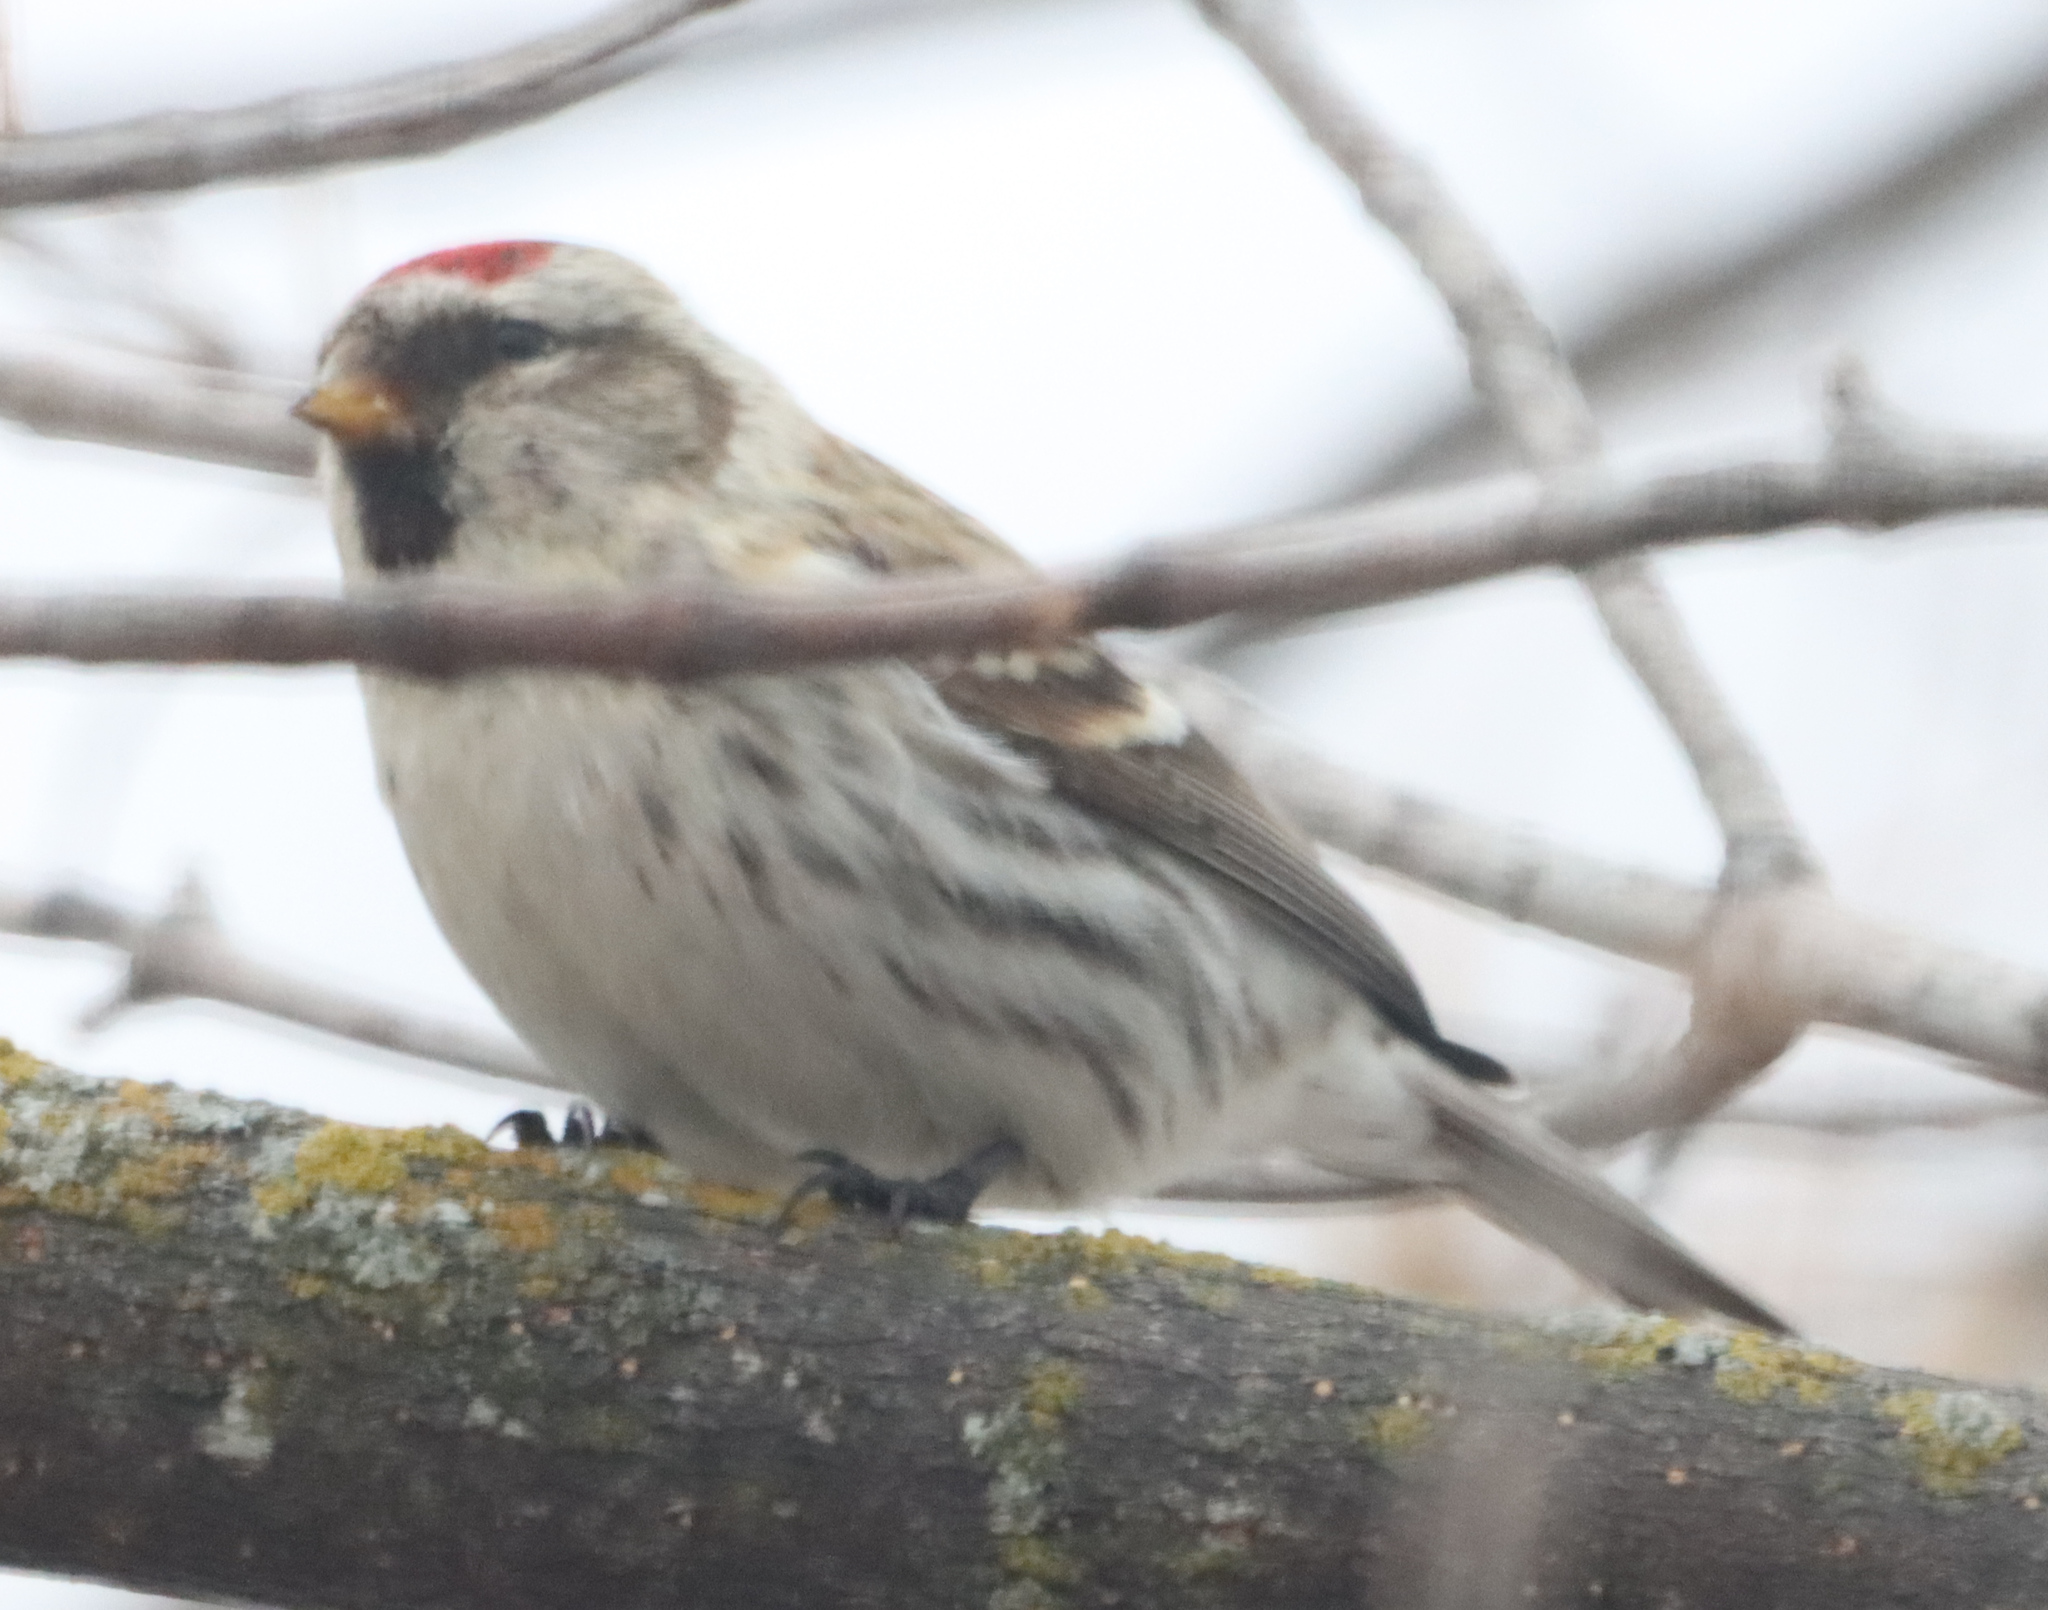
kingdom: Animalia
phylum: Chordata
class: Aves
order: Passeriformes
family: Fringillidae
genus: Acanthis
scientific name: Acanthis flammea
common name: Common redpoll
